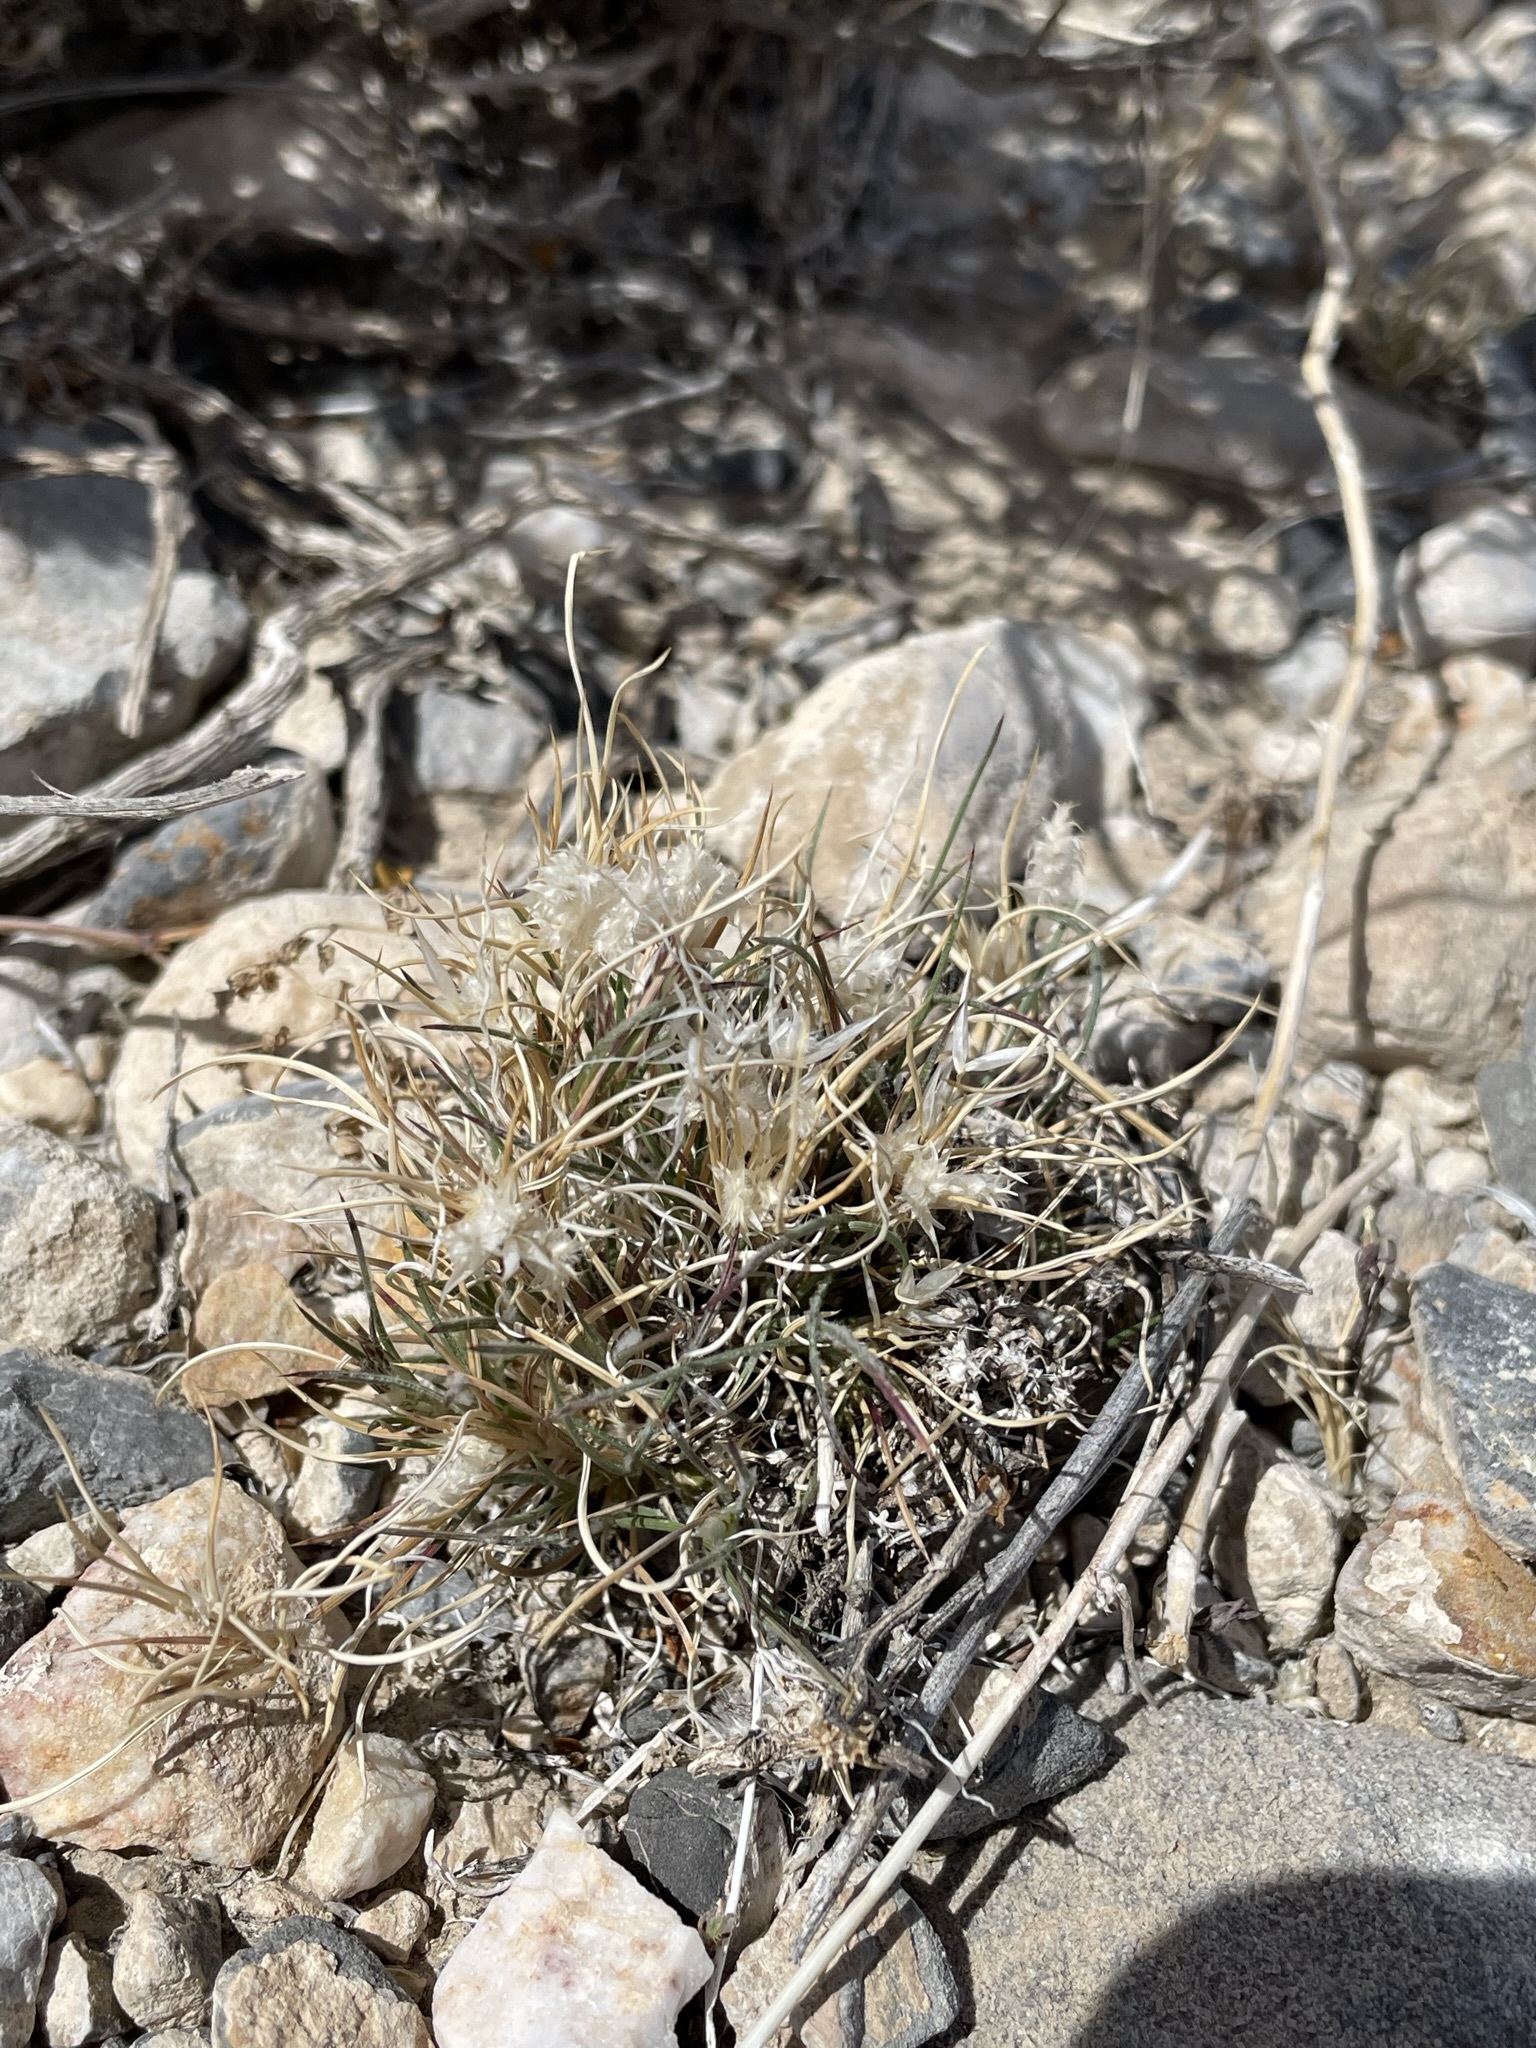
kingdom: Plantae
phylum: Tracheophyta
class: Liliopsida
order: Poales
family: Poaceae
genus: Dasyochloa
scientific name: Dasyochloa pulchella
